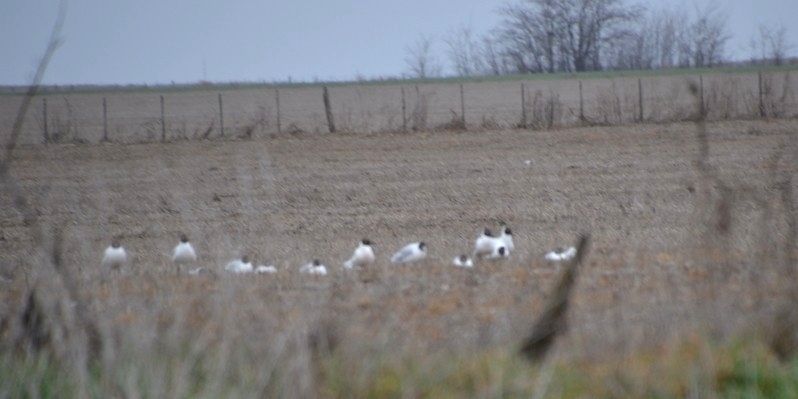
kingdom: Animalia
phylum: Chordata
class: Aves
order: Charadriiformes
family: Laridae
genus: Chroicocephalus
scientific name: Chroicocephalus maculipennis
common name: Brown-hooded gull
